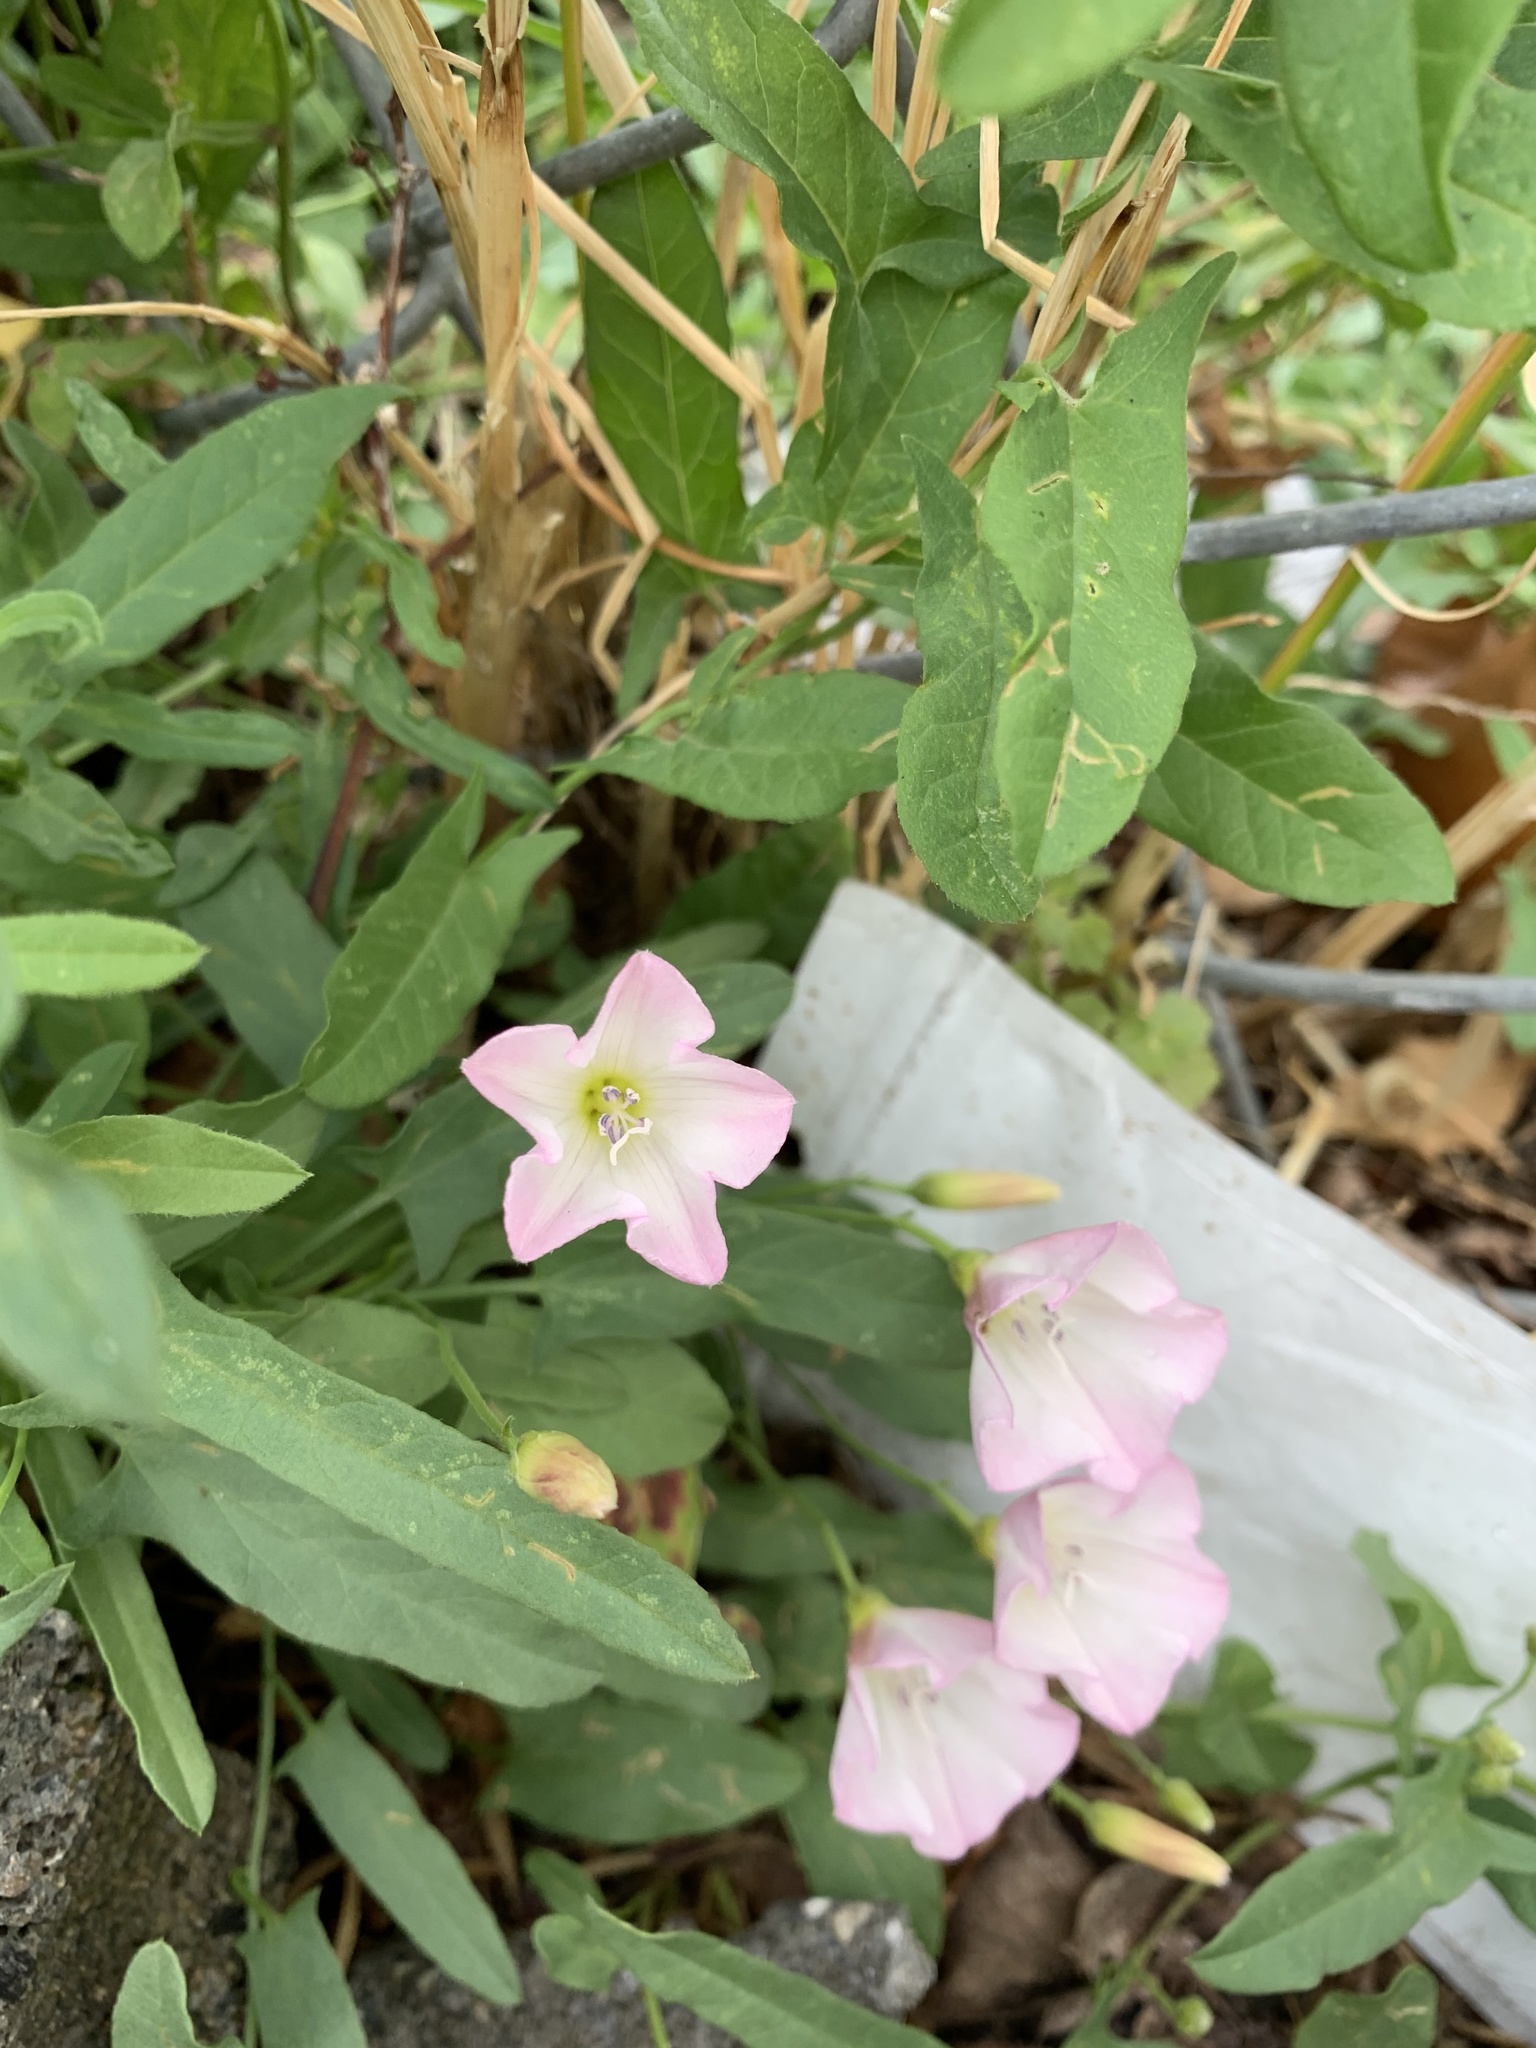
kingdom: Plantae
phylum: Tracheophyta
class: Magnoliopsida
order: Solanales
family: Convolvulaceae
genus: Convolvulus
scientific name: Convolvulus arvensis
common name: Field bindweed
